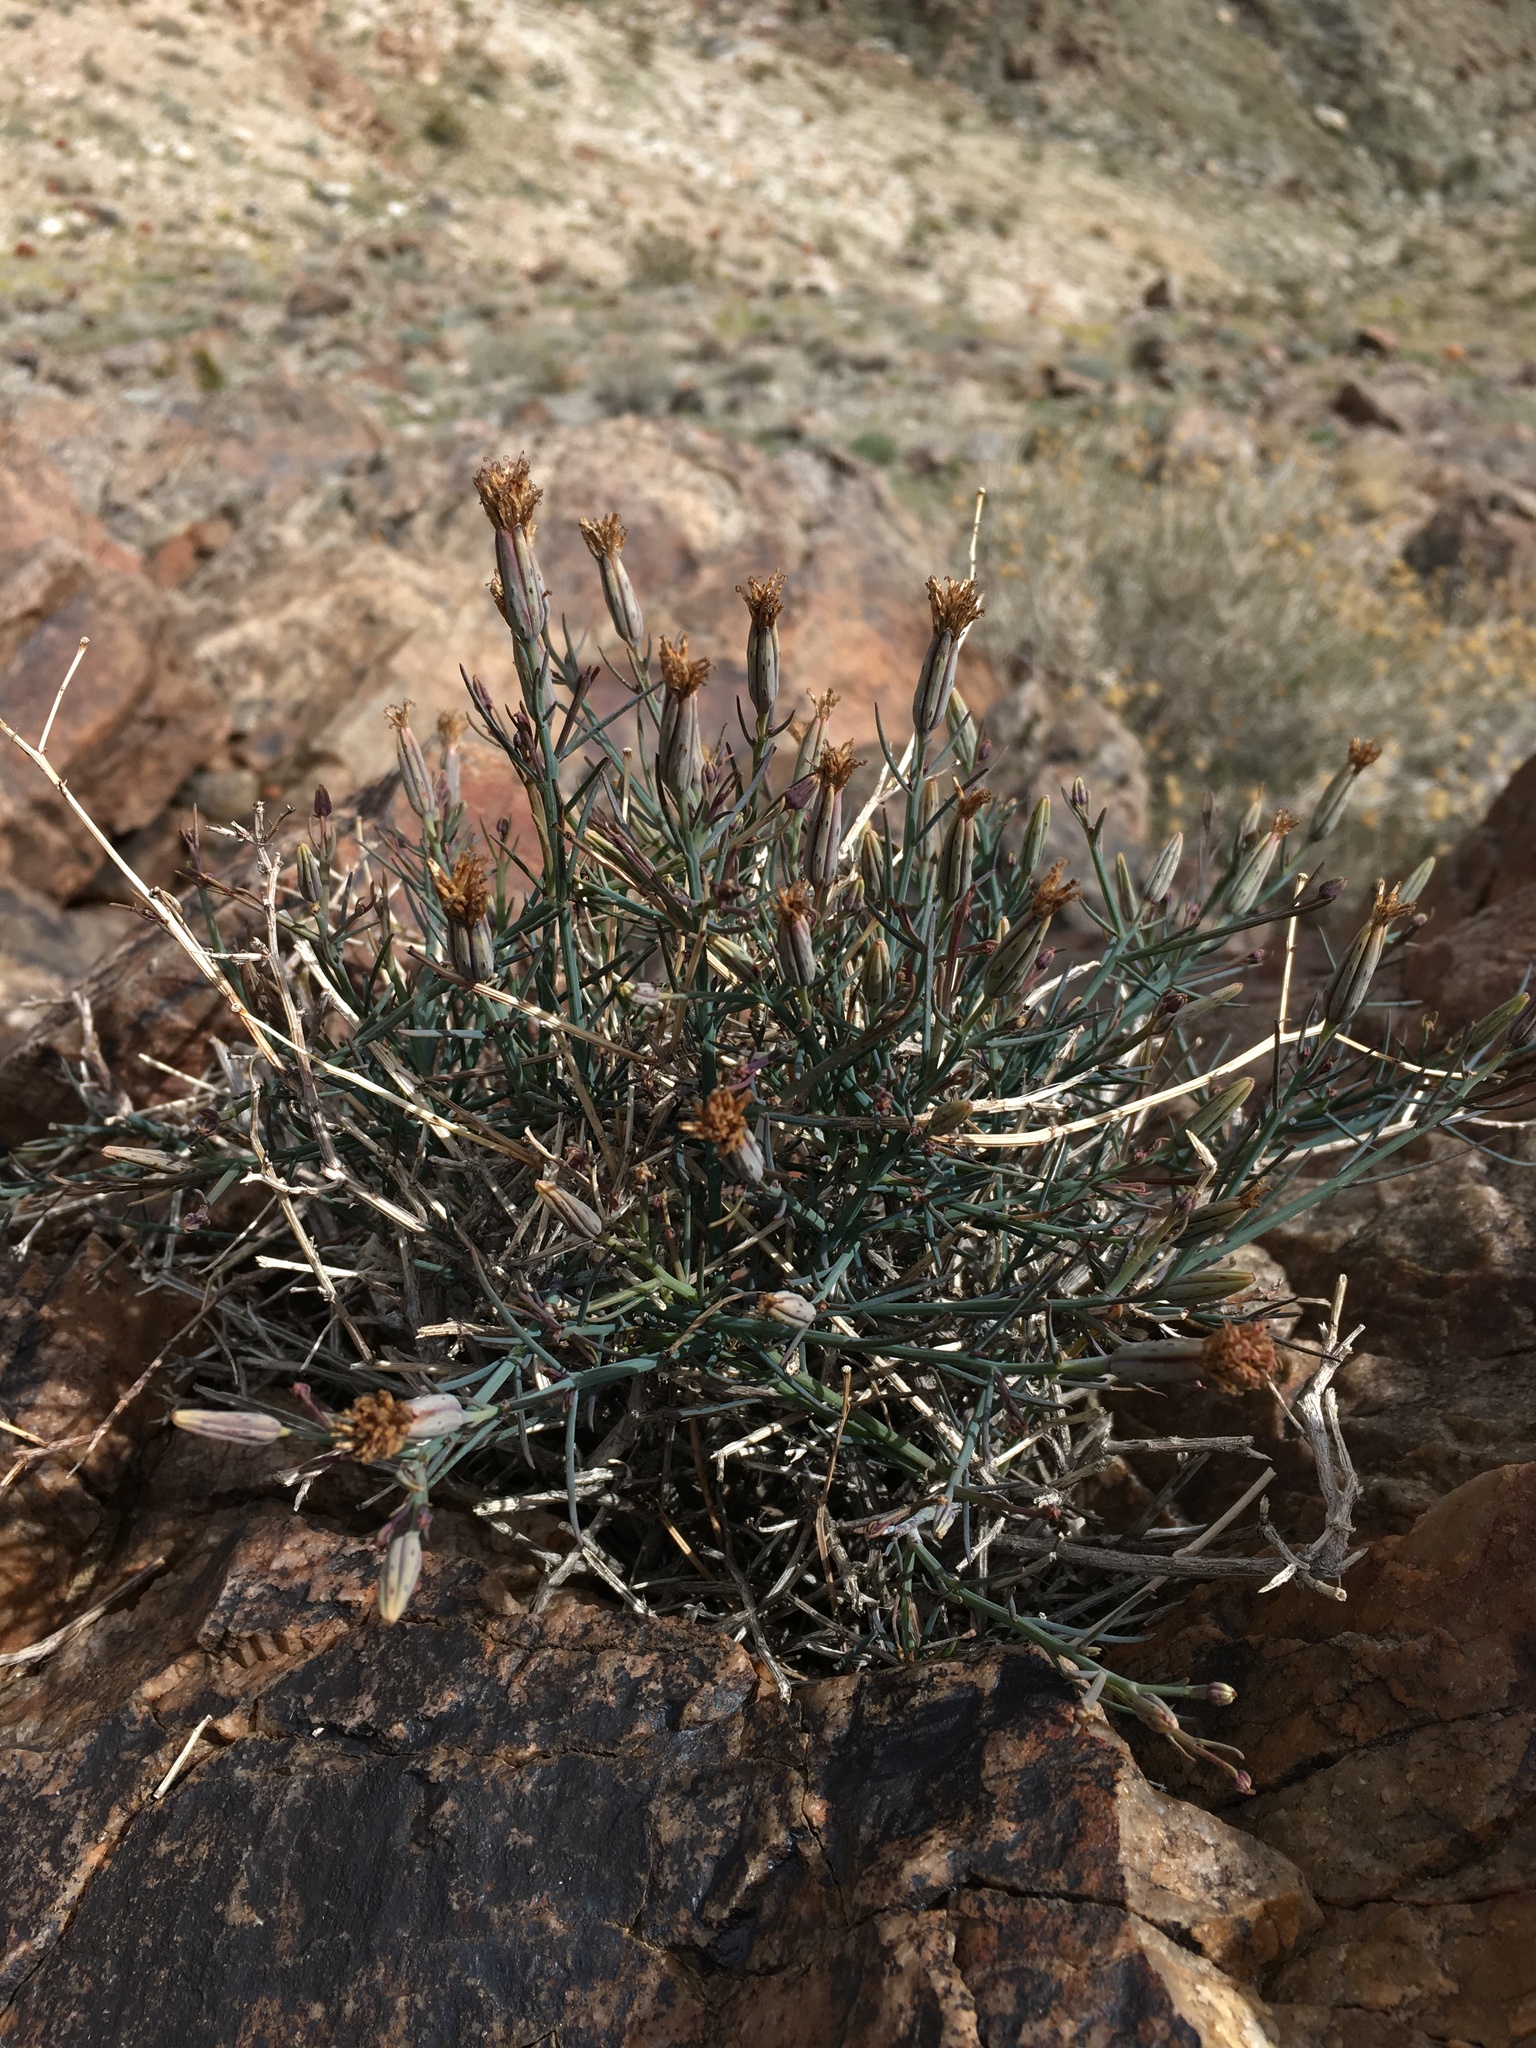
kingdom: Plantae
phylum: Tracheophyta
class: Magnoliopsida
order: Asterales
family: Asteraceae
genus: Porophyllum
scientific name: Porophyllum gracile
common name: Odora
